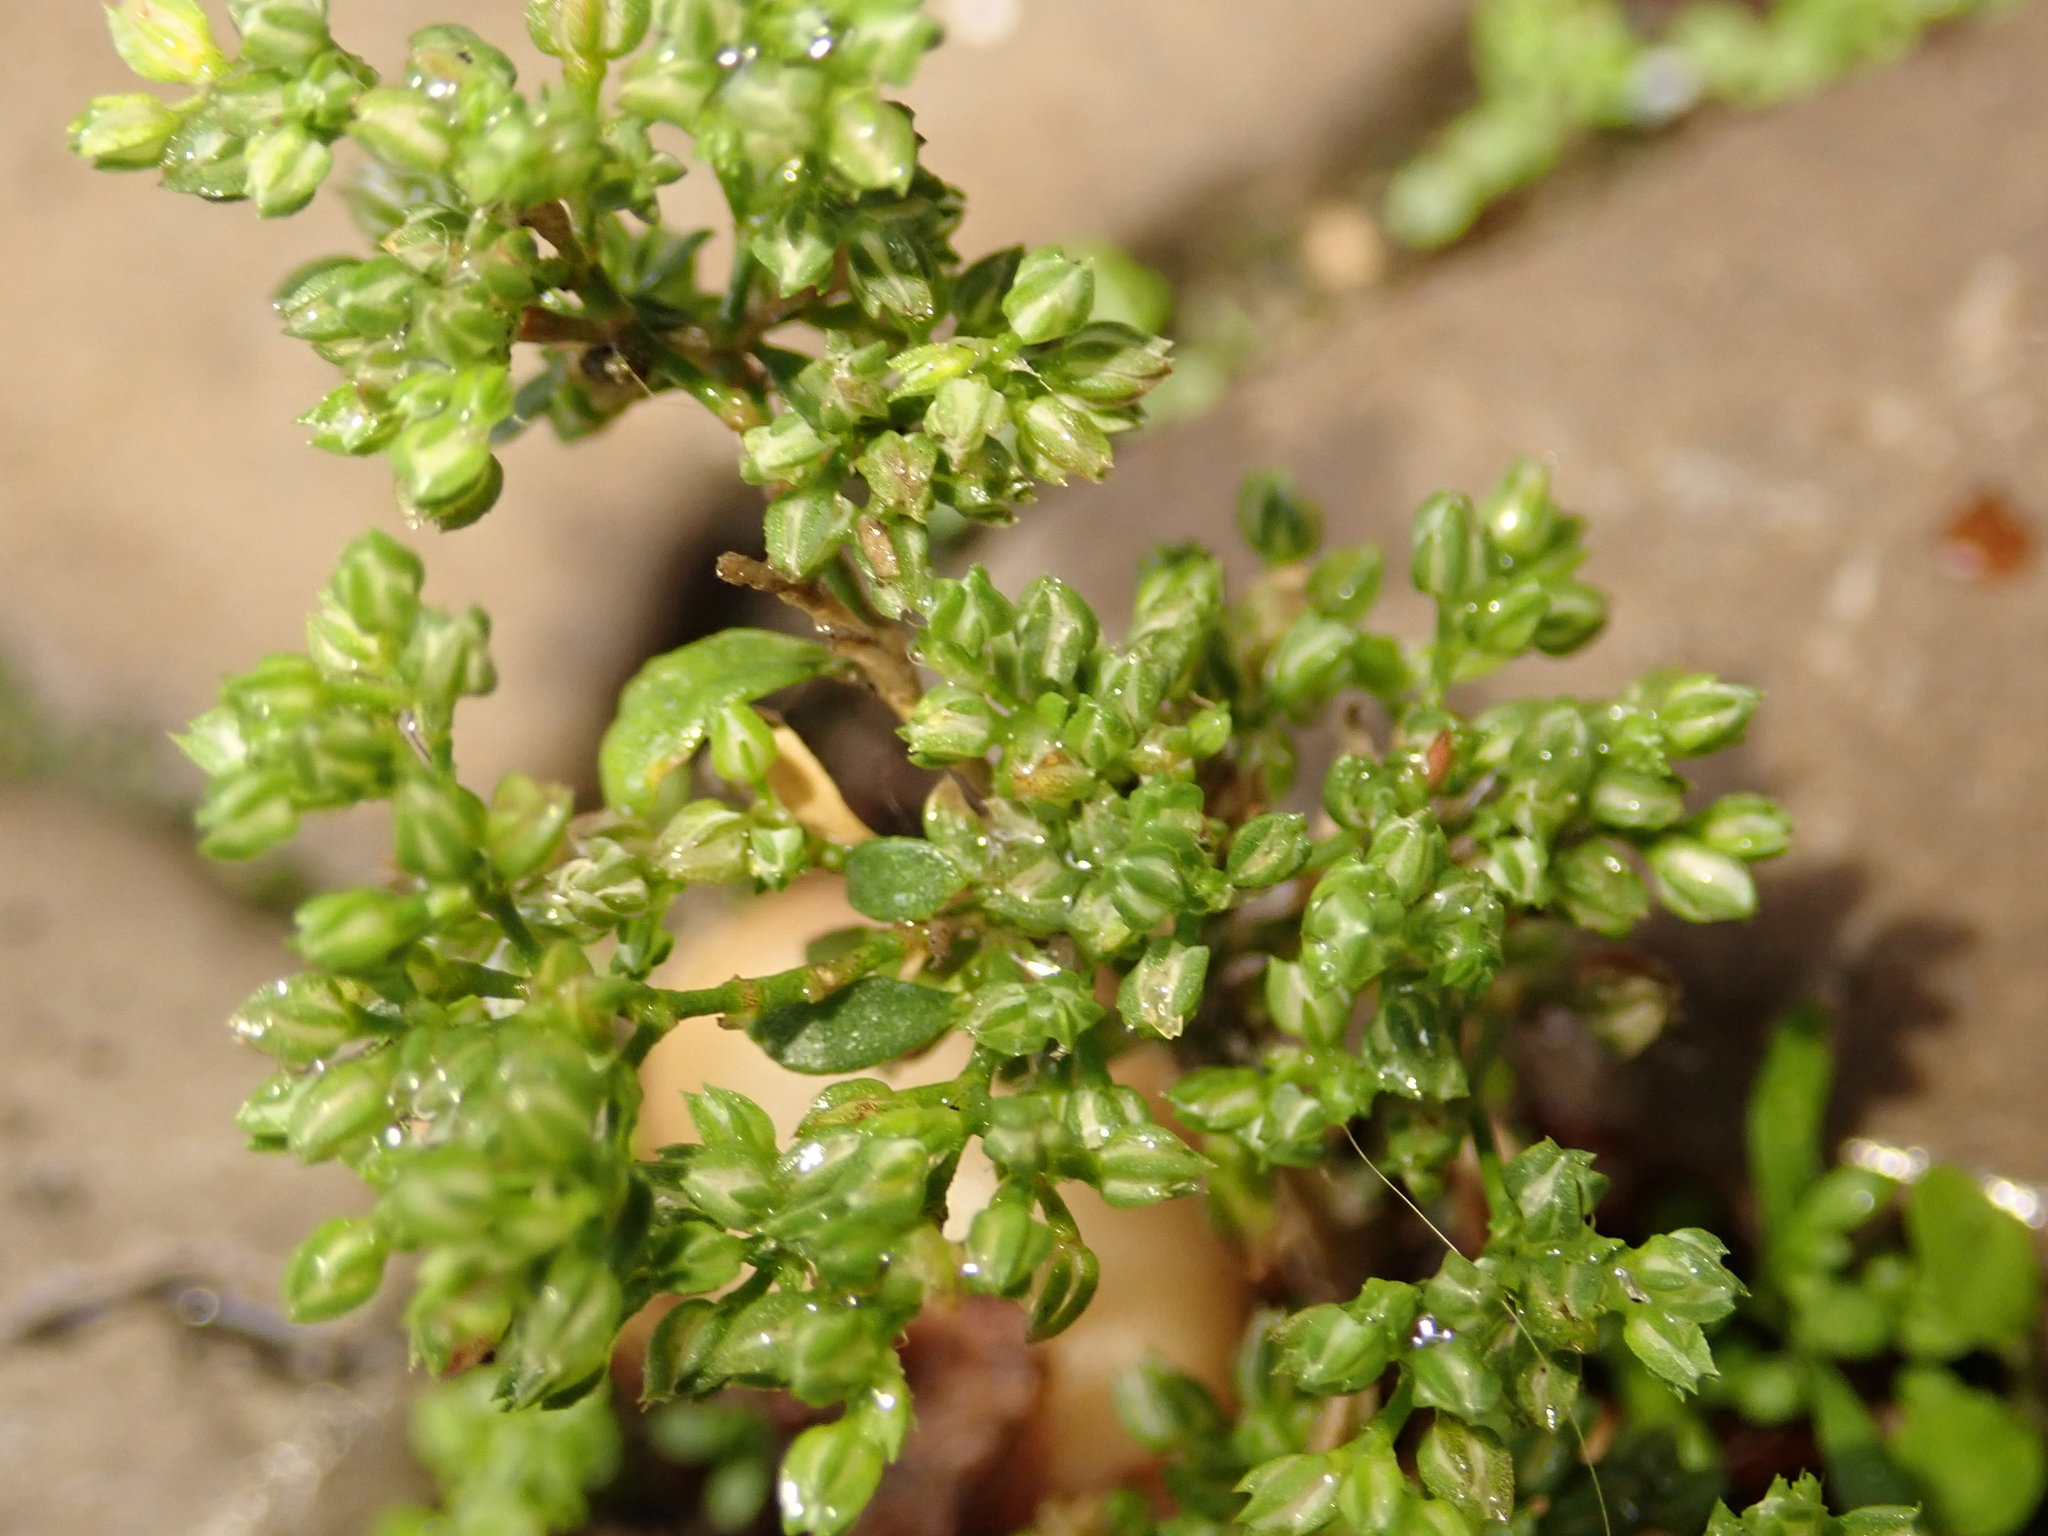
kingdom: Plantae
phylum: Tracheophyta
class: Magnoliopsida
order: Caryophyllales
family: Caryophyllaceae
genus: Polycarpon
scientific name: Polycarpon tetraphyllum
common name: Four-leaved all-seed
